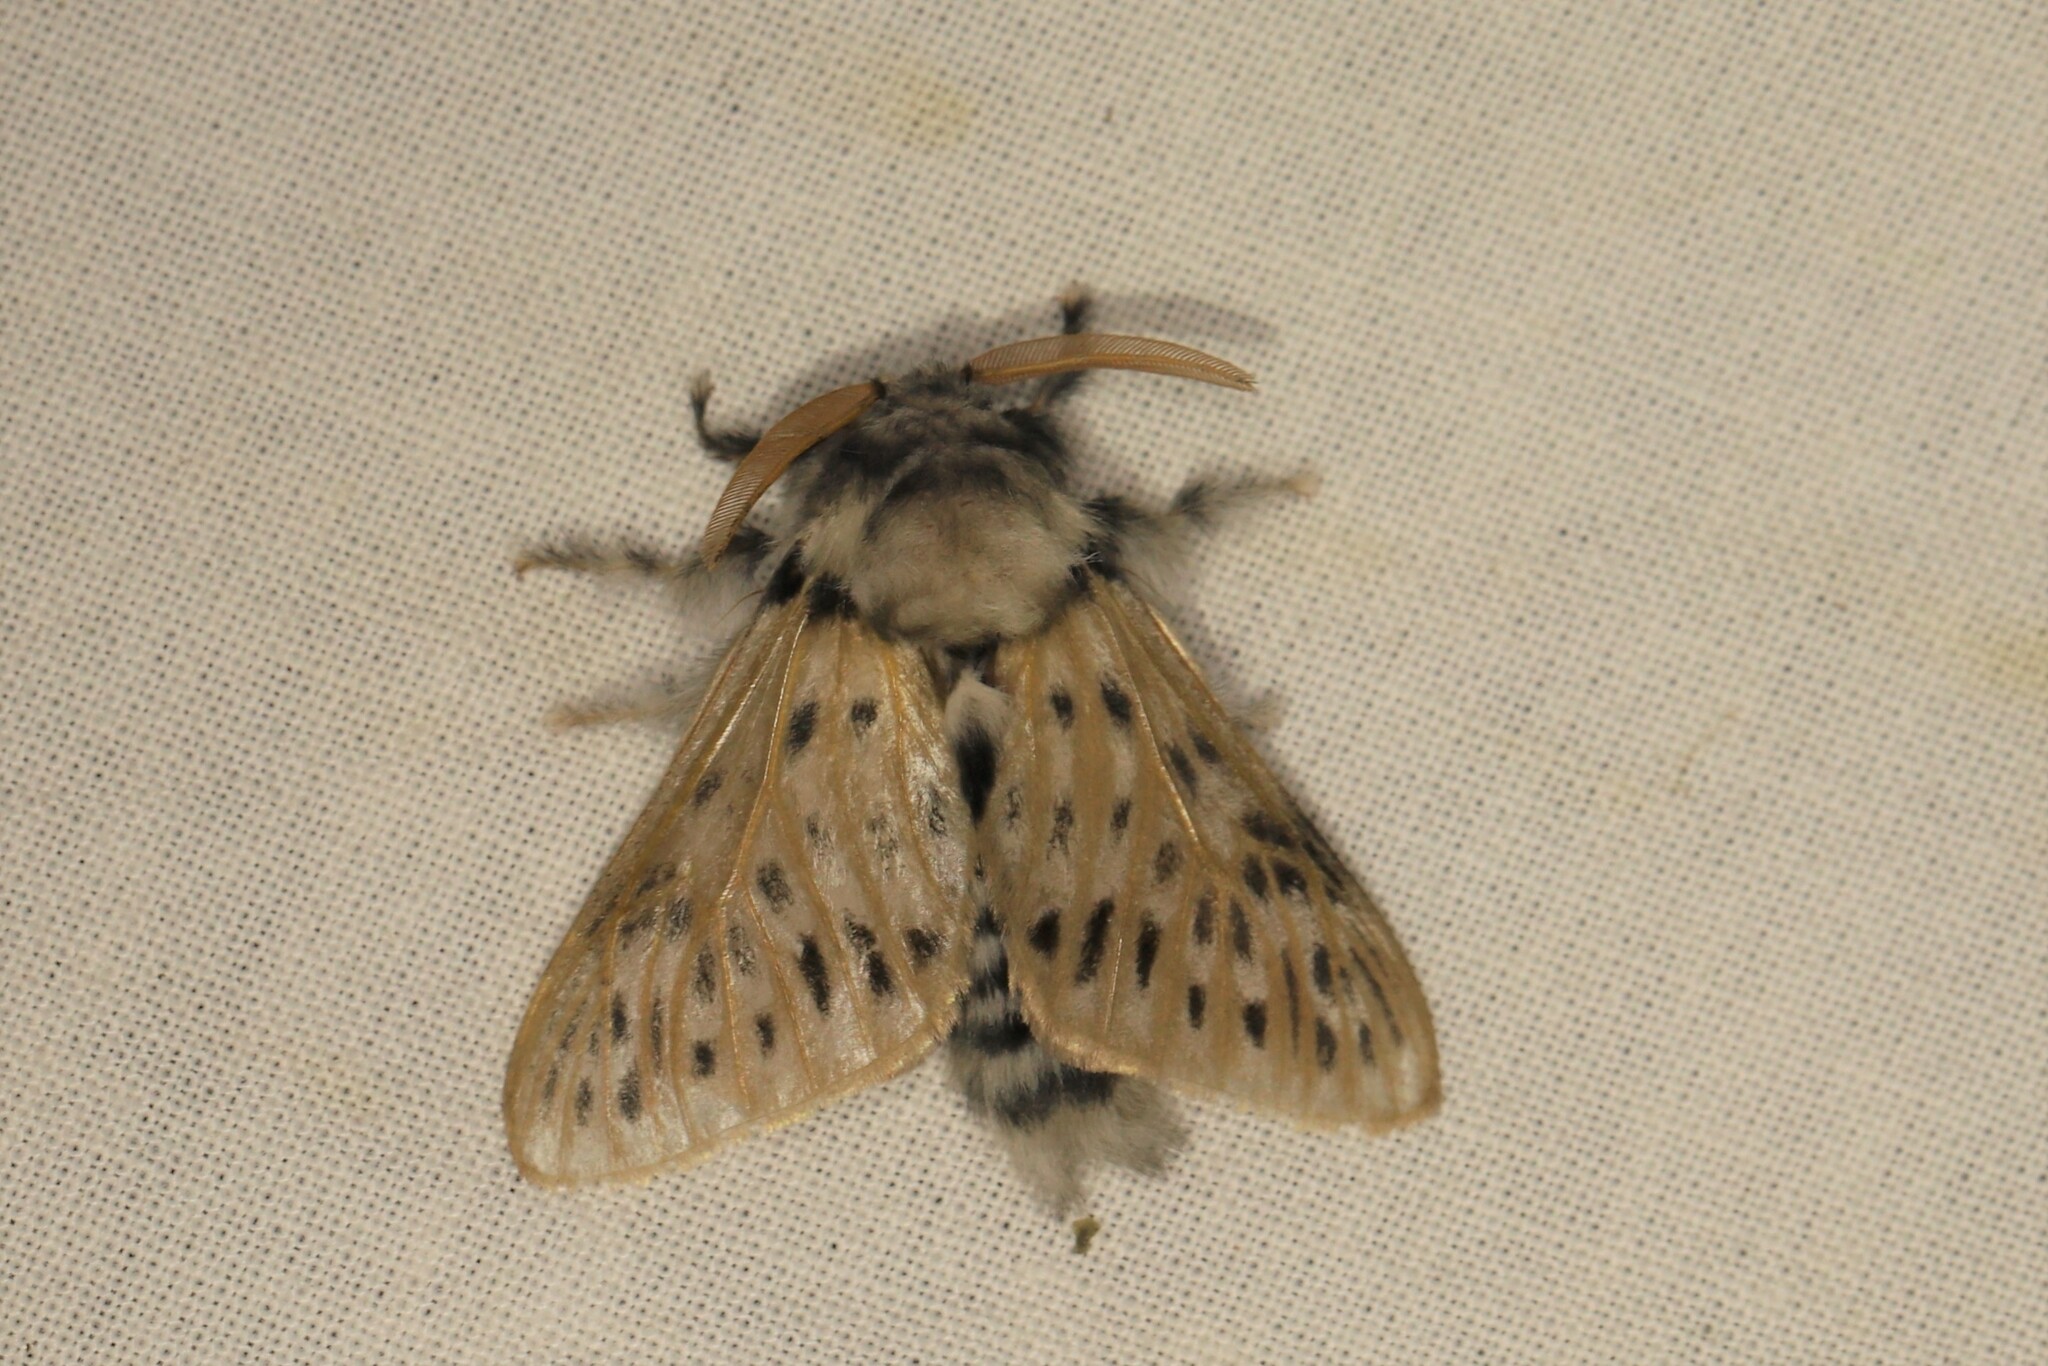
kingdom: Animalia
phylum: Arthropoda
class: Insecta
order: Lepidoptera
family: Megalopygidae
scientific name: Megalopygidae
